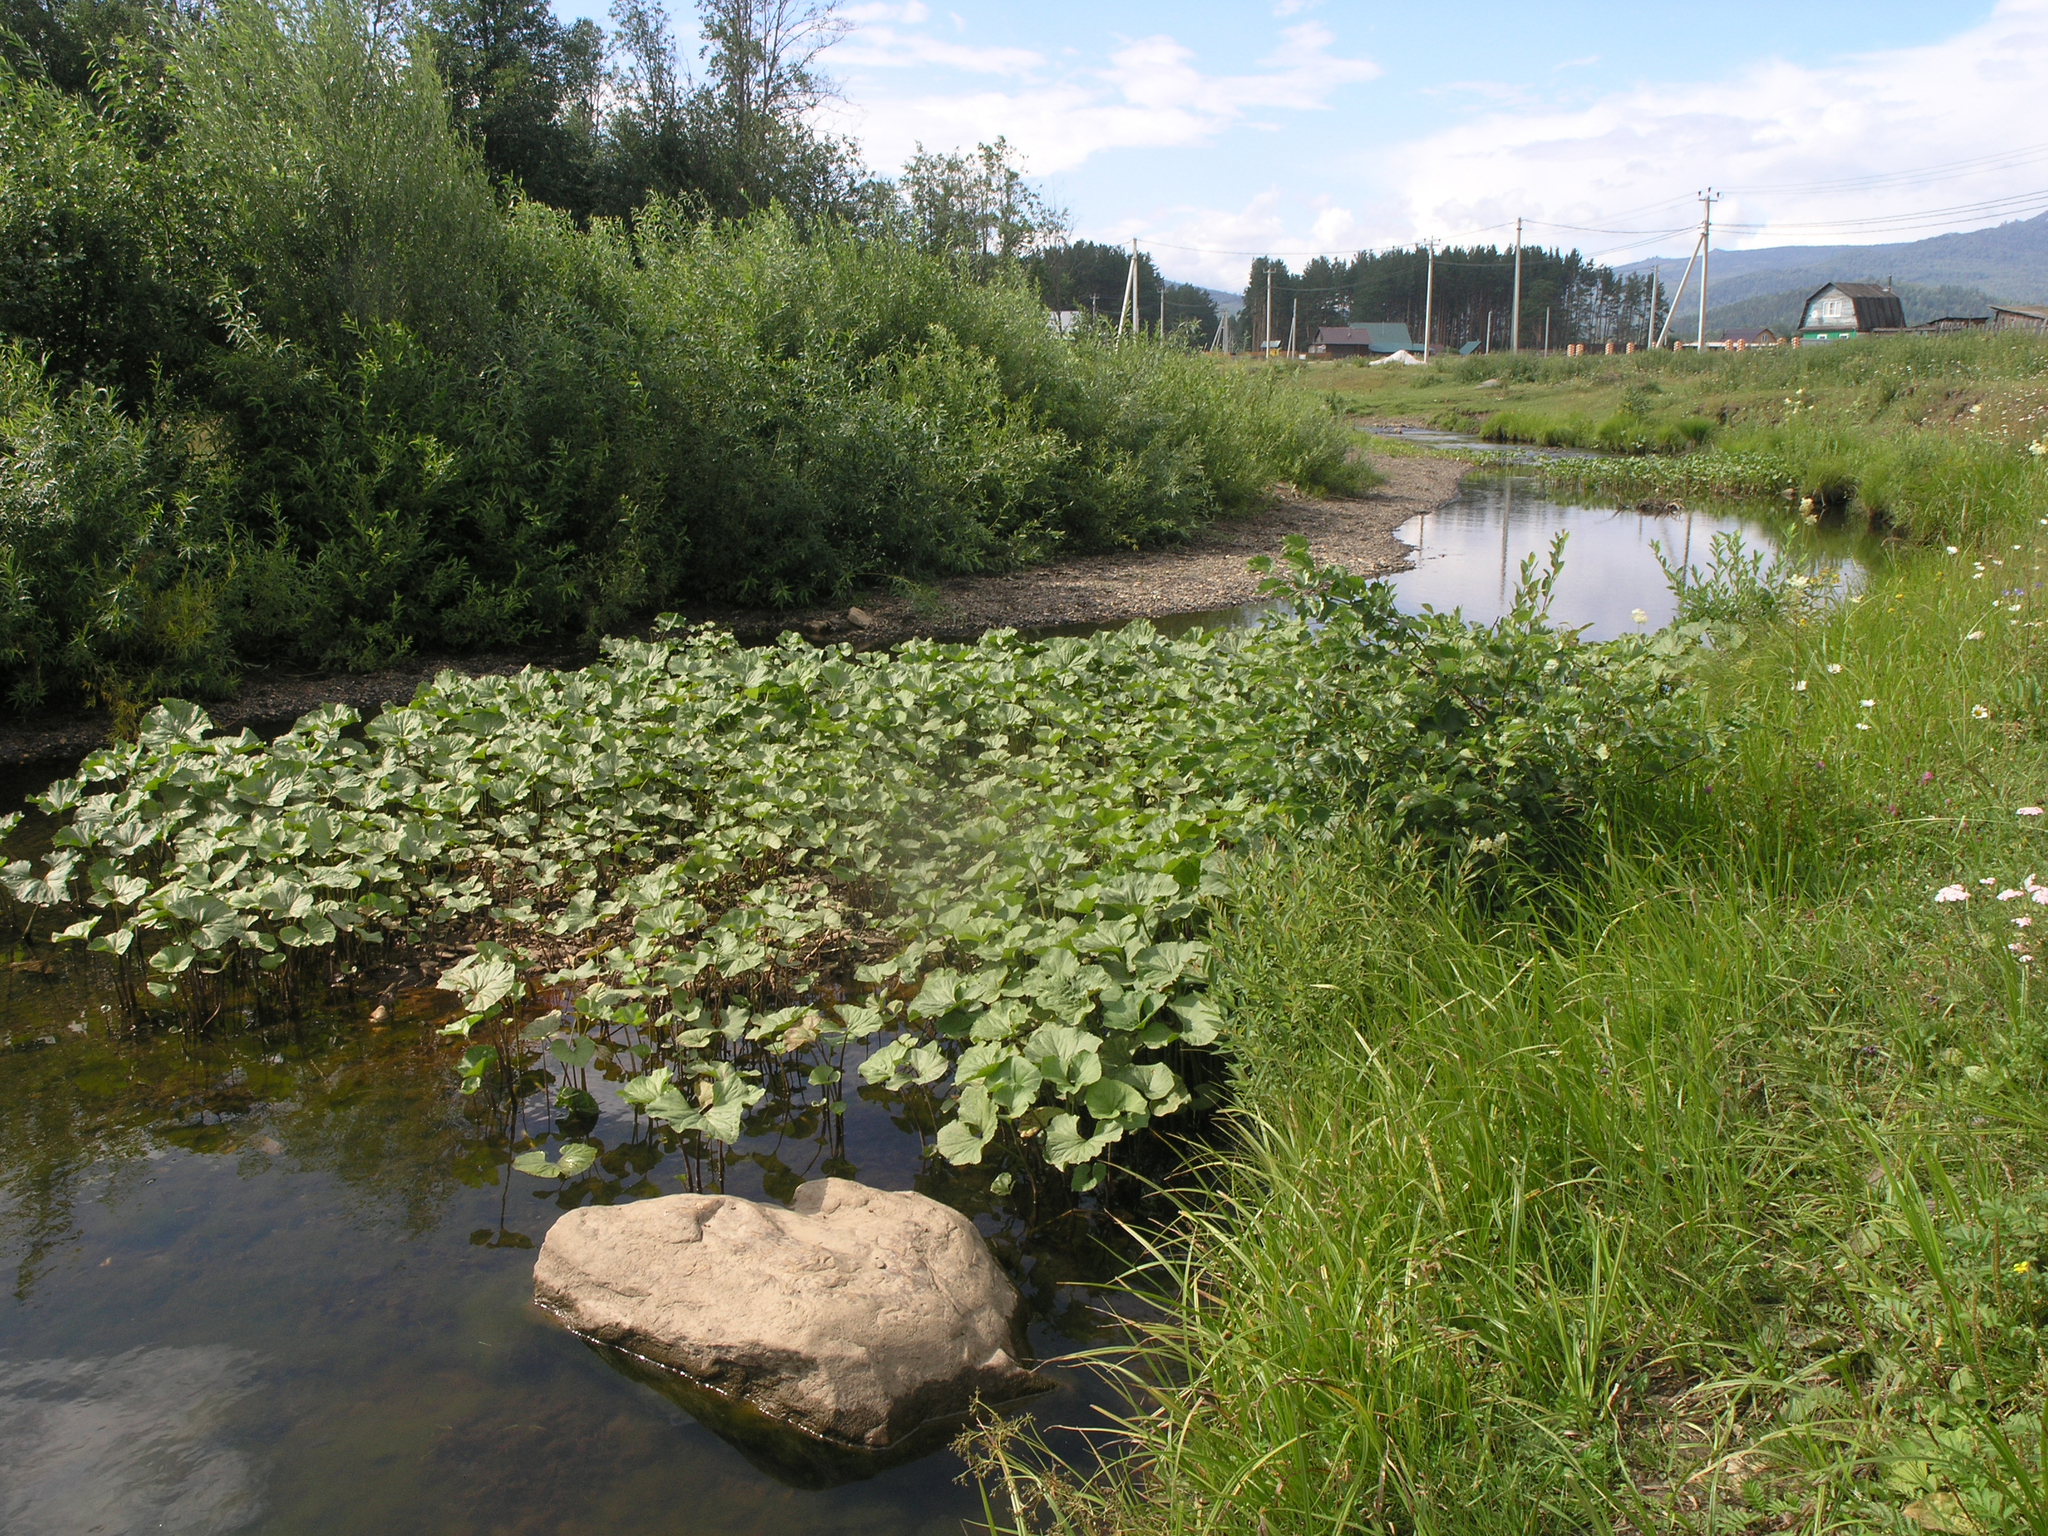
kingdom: Plantae
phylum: Tracheophyta
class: Magnoliopsida
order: Asterales
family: Asteraceae
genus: Petasites
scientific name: Petasites radiatus
